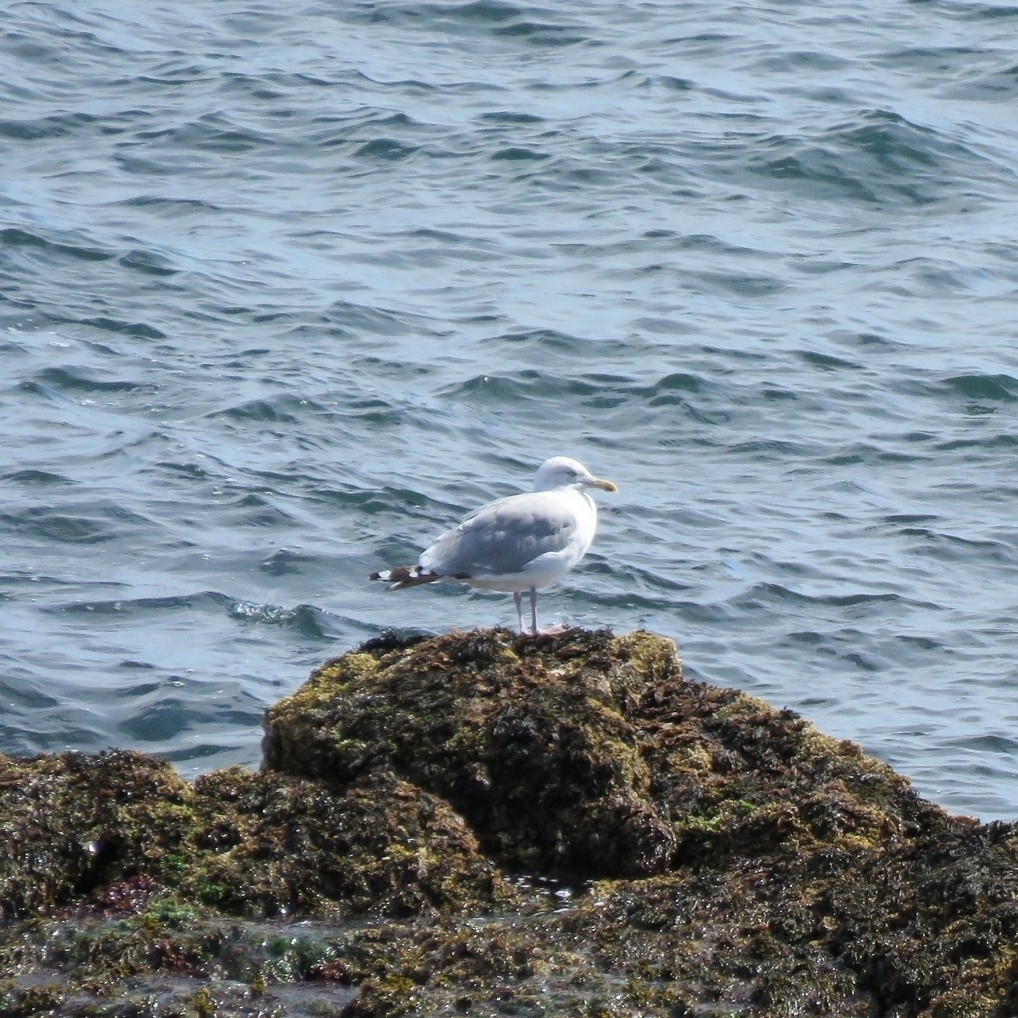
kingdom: Animalia
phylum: Chordata
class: Aves
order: Charadriiformes
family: Laridae
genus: Larus
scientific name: Larus smithsonianus
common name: American herring gull
